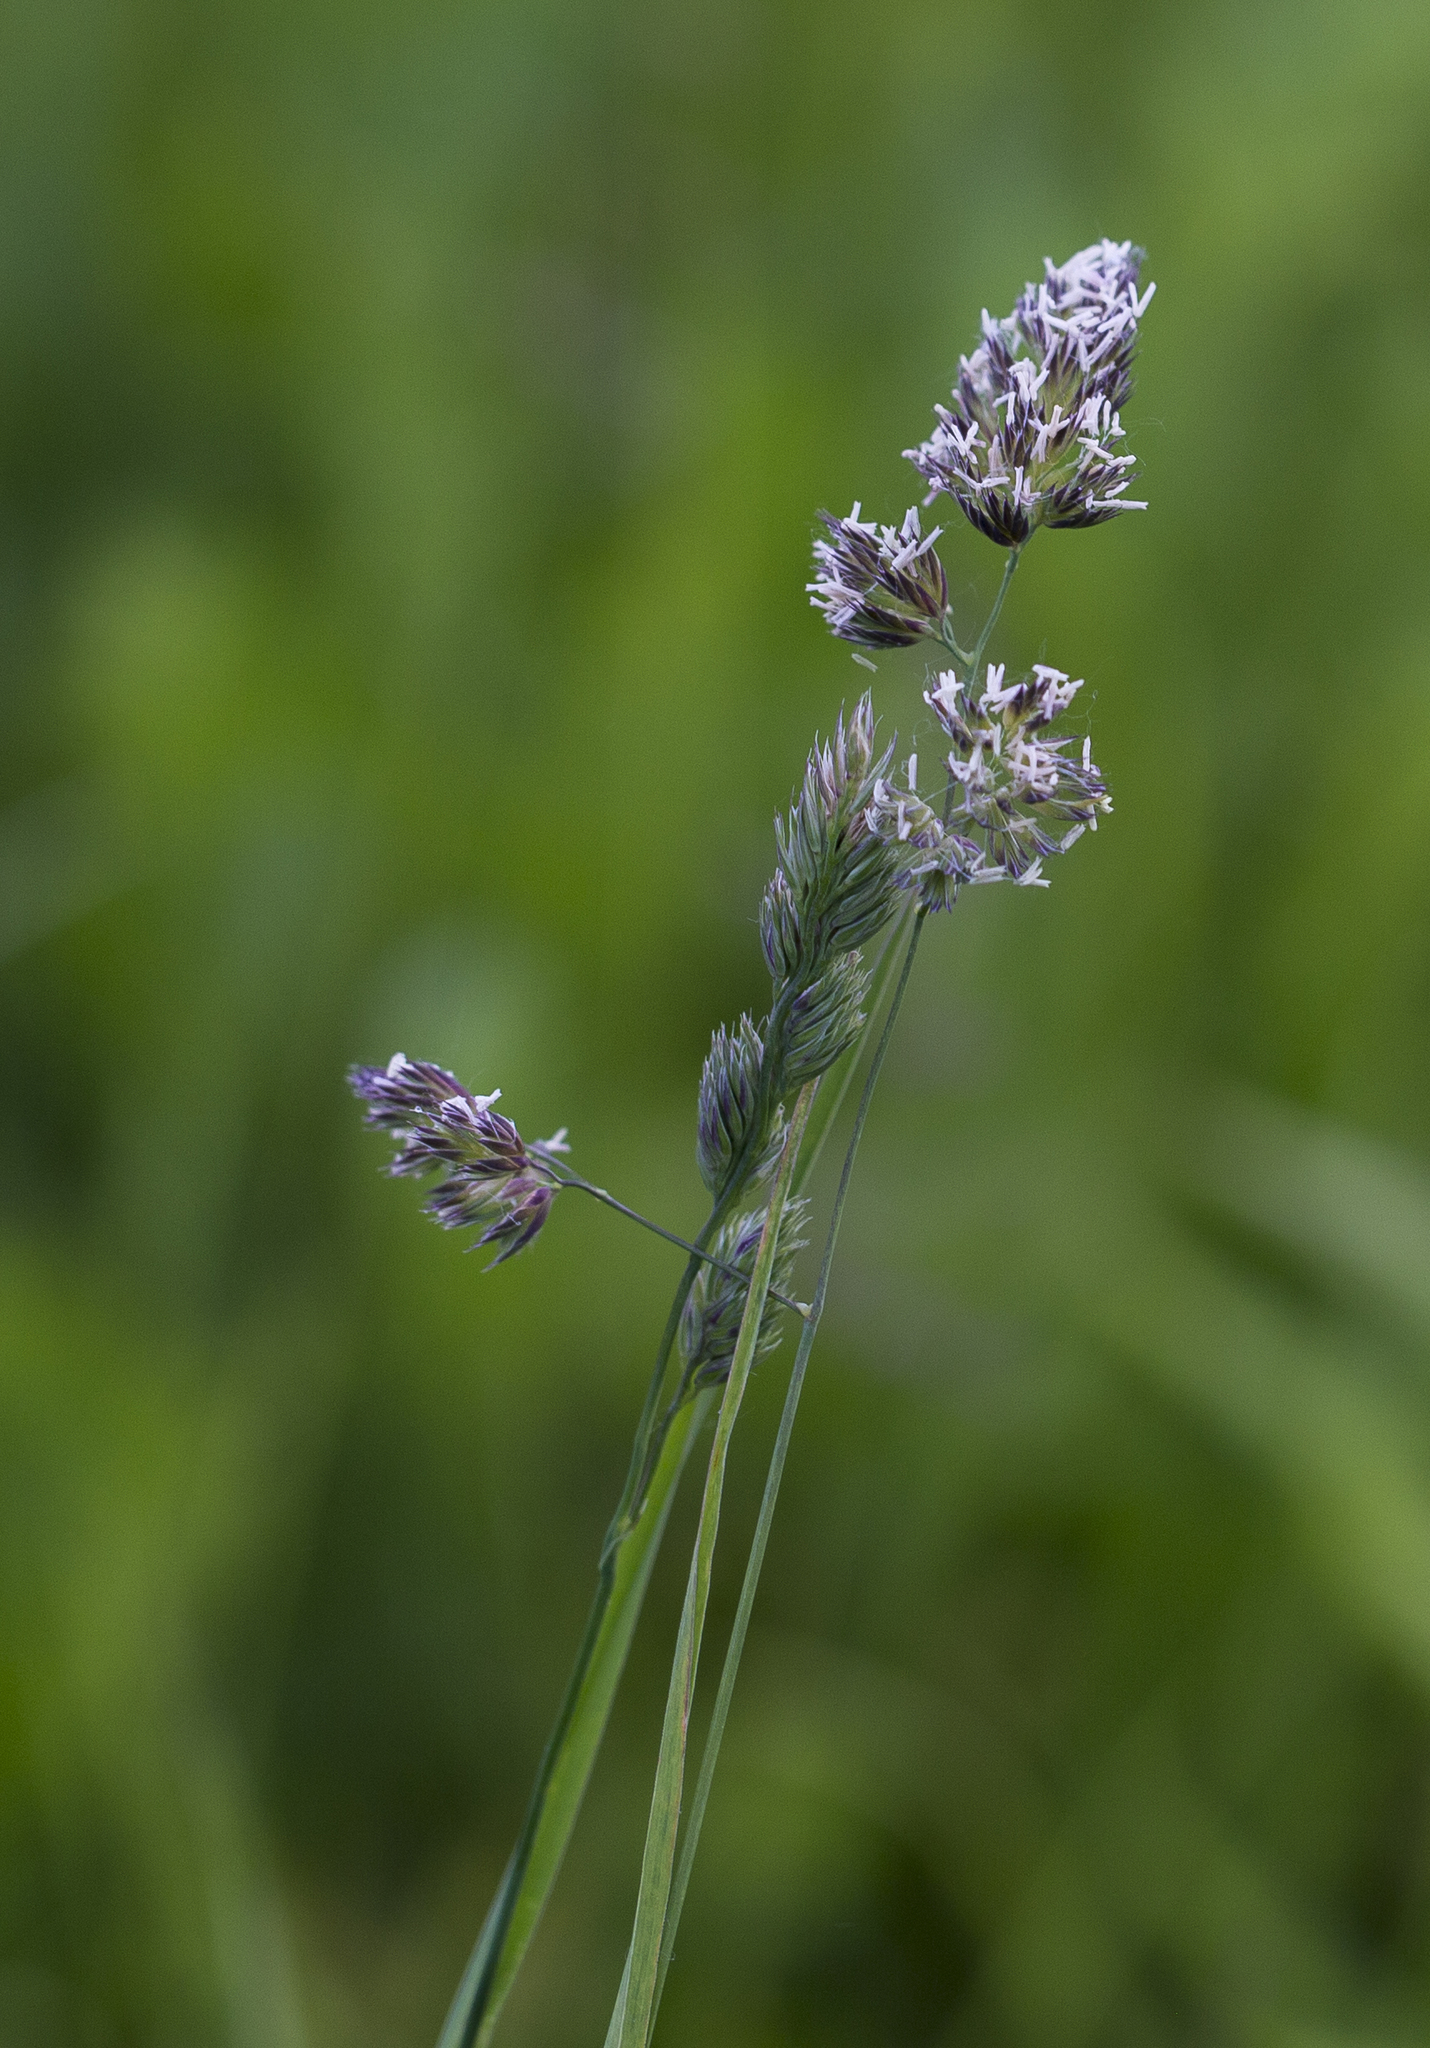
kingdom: Plantae
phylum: Tracheophyta
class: Liliopsida
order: Poales
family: Poaceae
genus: Dactylis
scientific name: Dactylis glomerata
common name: Orchardgrass
